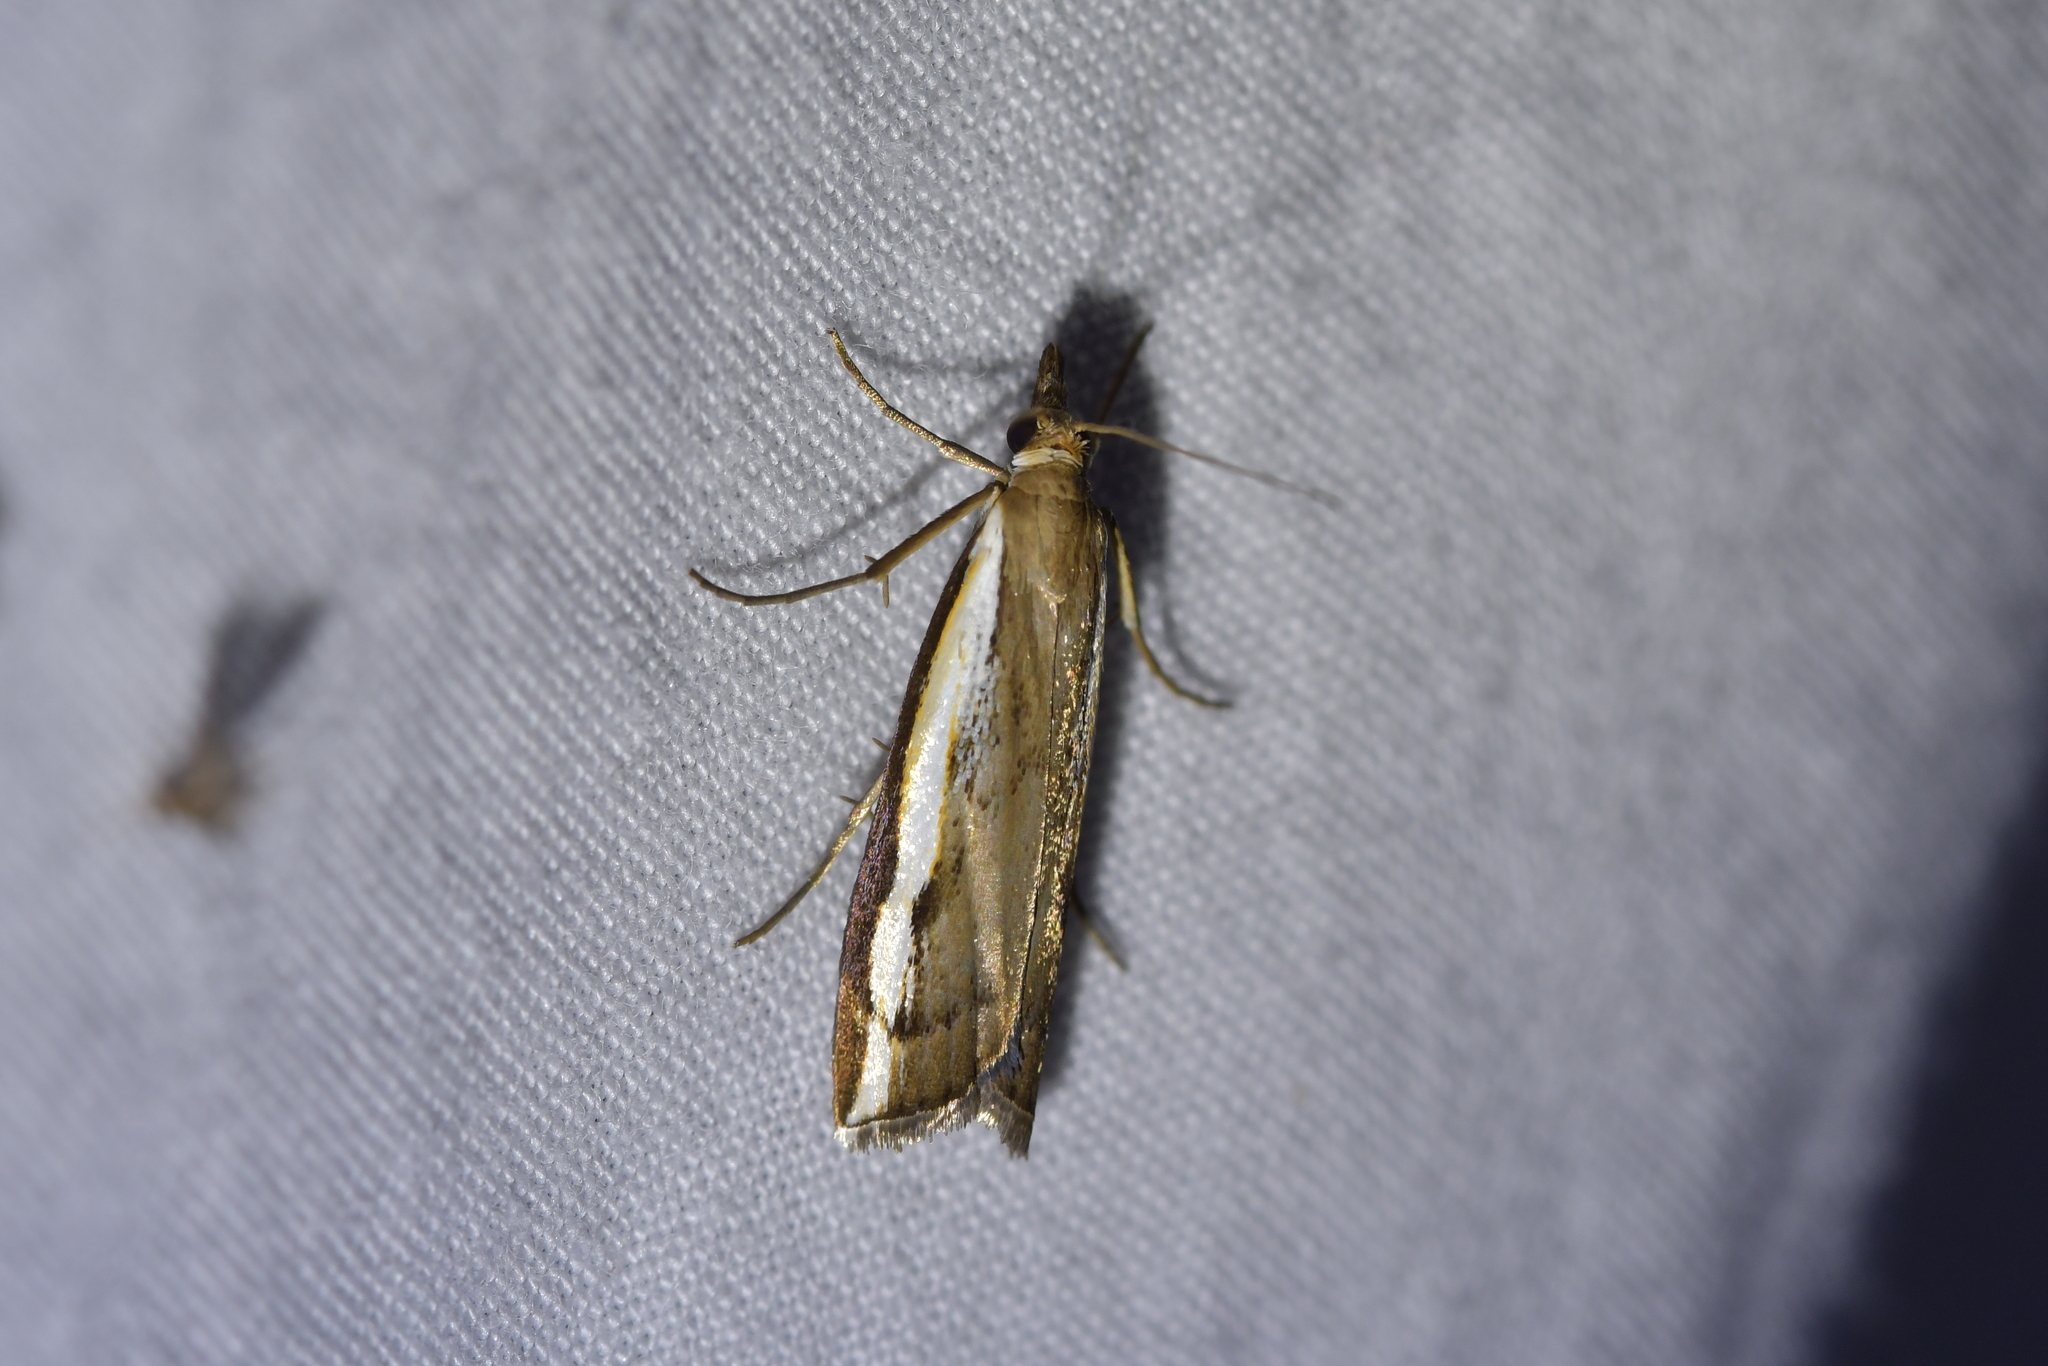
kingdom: Animalia
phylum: Arthropoda
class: Insecta
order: Lepidoptera
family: Crambidae
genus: Orocrambus
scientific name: Orocrambus flexuosellus
